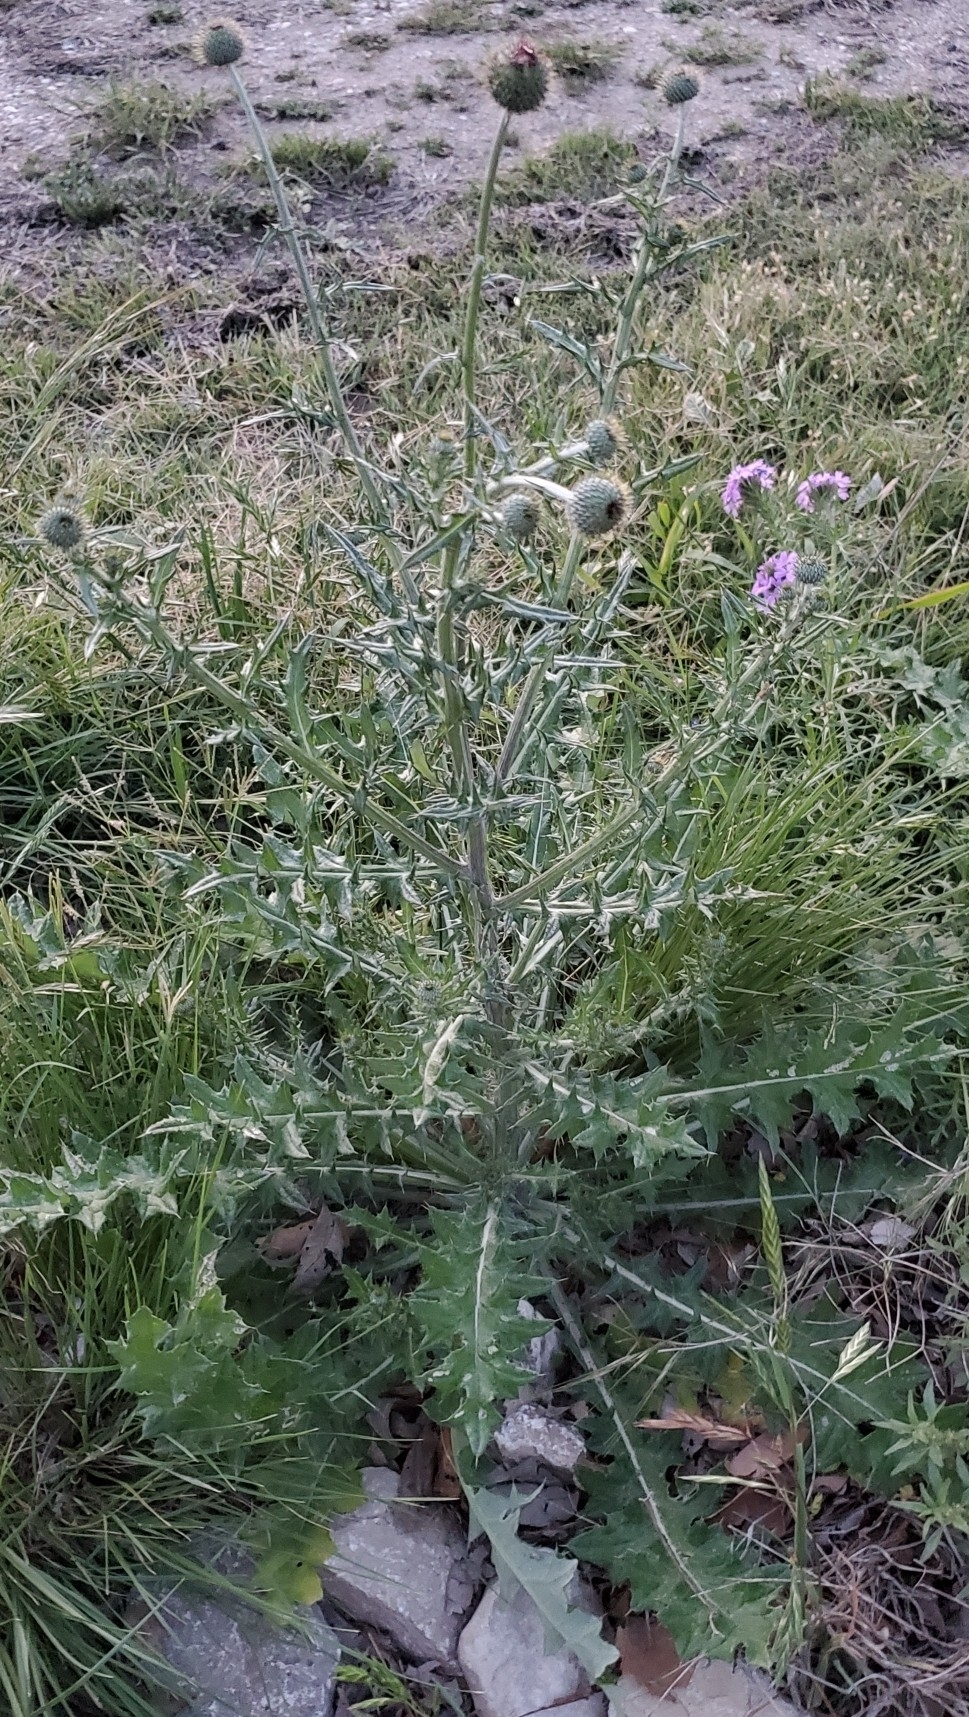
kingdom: Plantae
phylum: Tracheophyta
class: Magnoliopsida
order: Asterales
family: Asteraceae
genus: Cirsium
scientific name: Cirsium texanum
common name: Texas purple thistle
